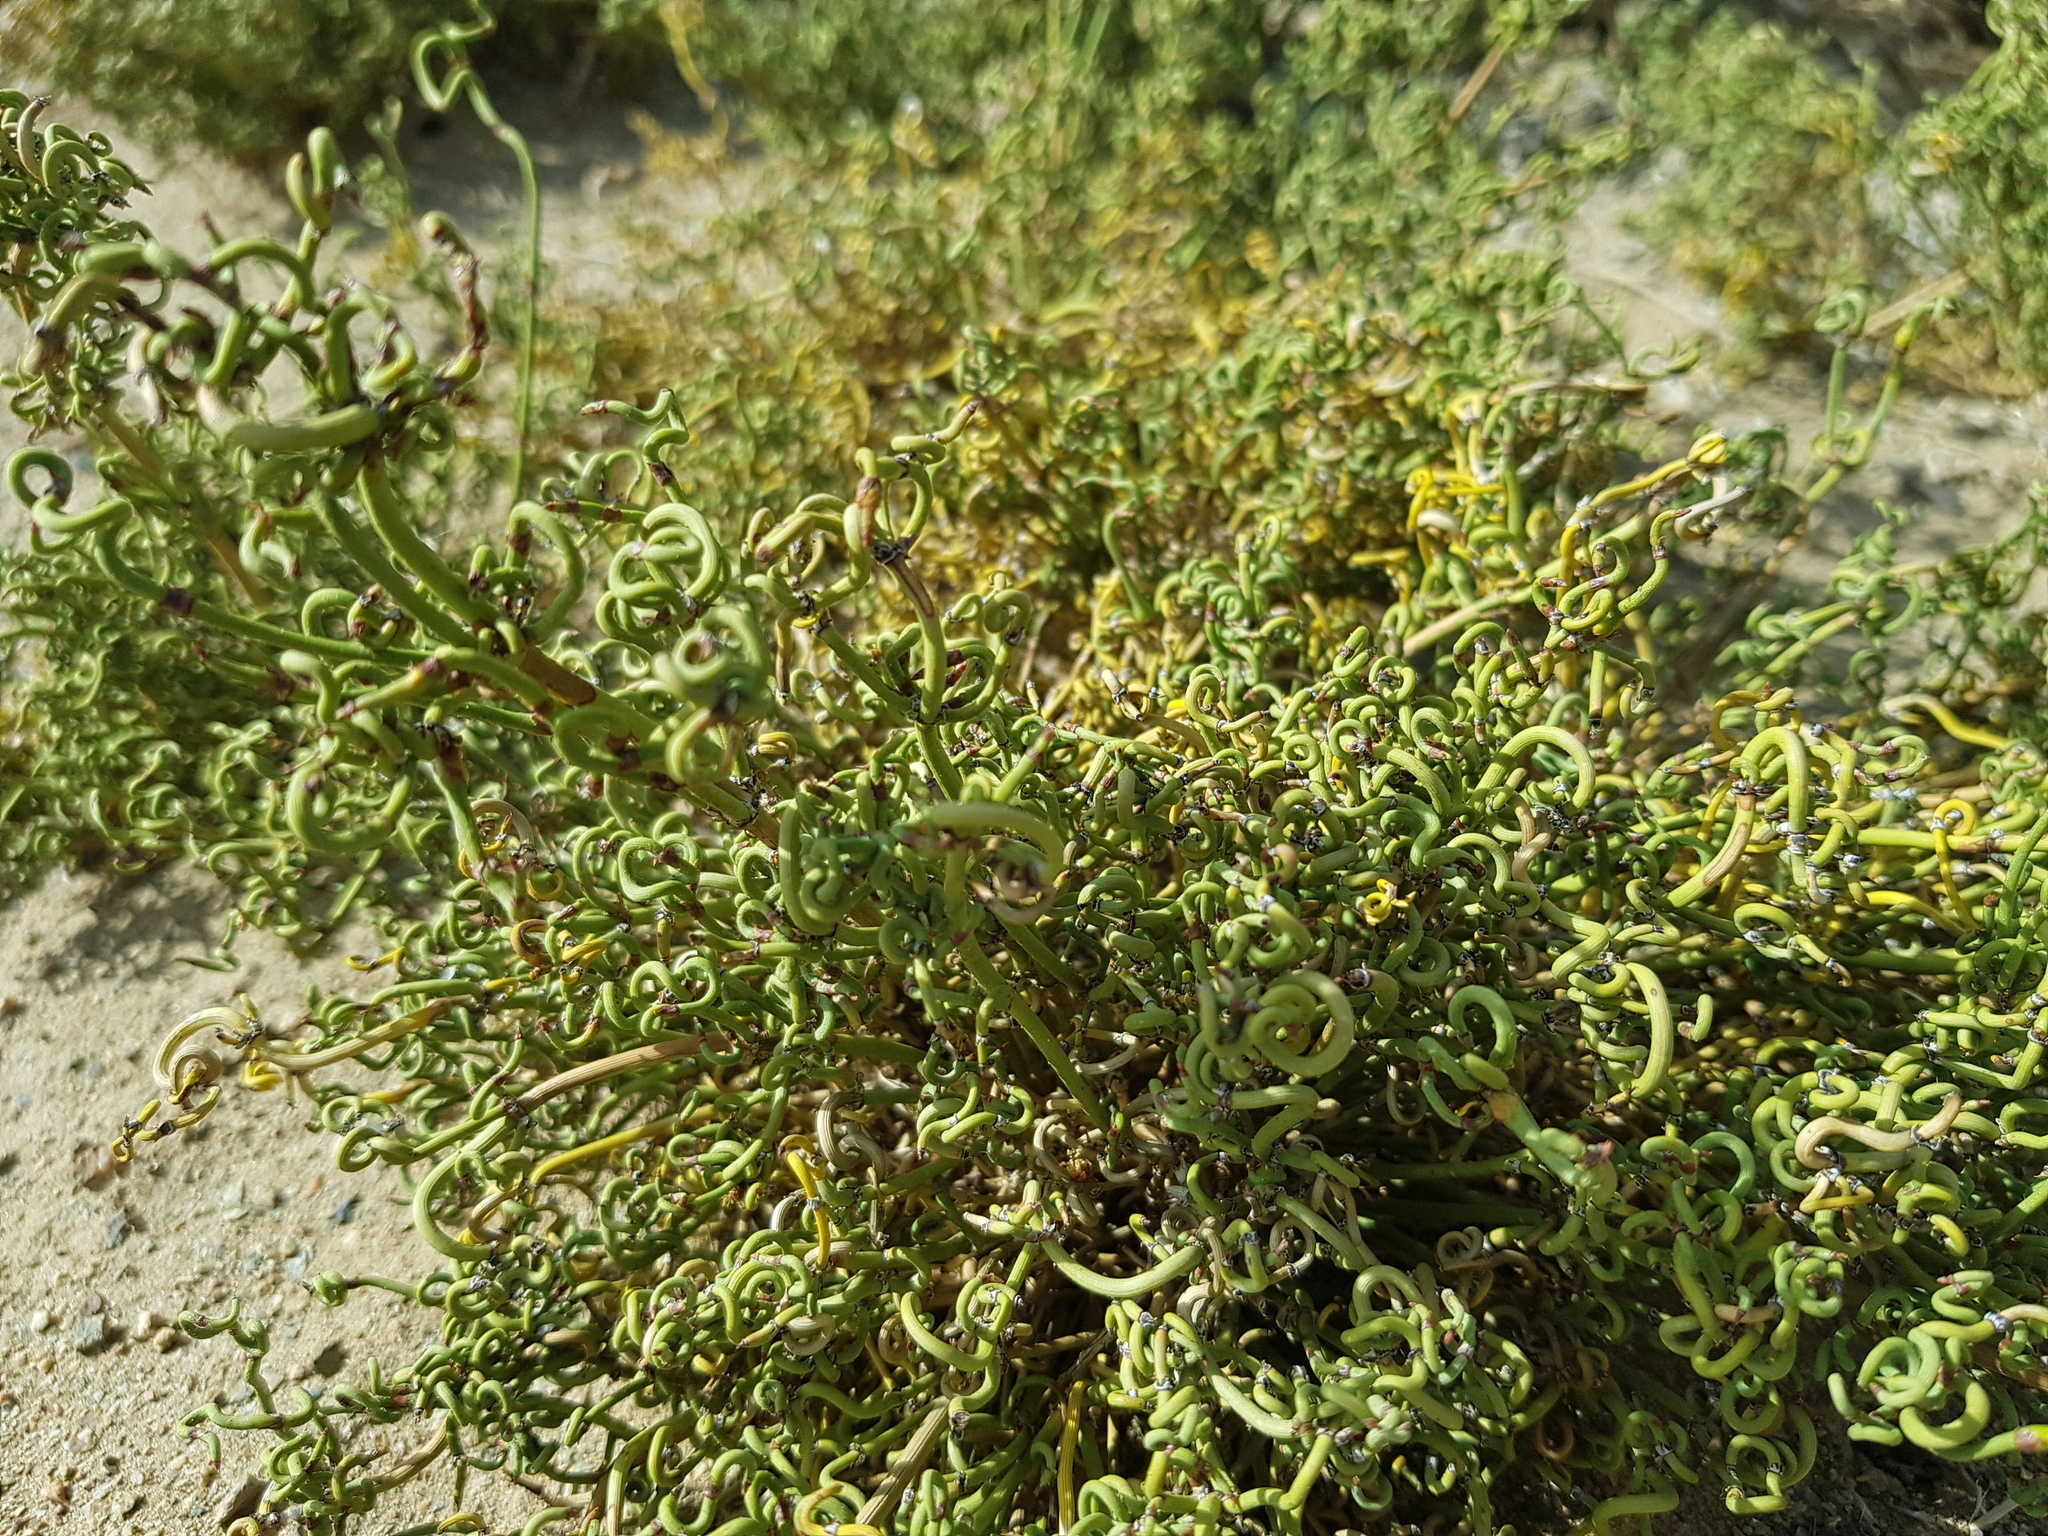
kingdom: Plantae
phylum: Tracheophyta
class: Gnetopsida
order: Ephedrales
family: Ephedraceae
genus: Ephedra
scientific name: Ephedra przewalskii
